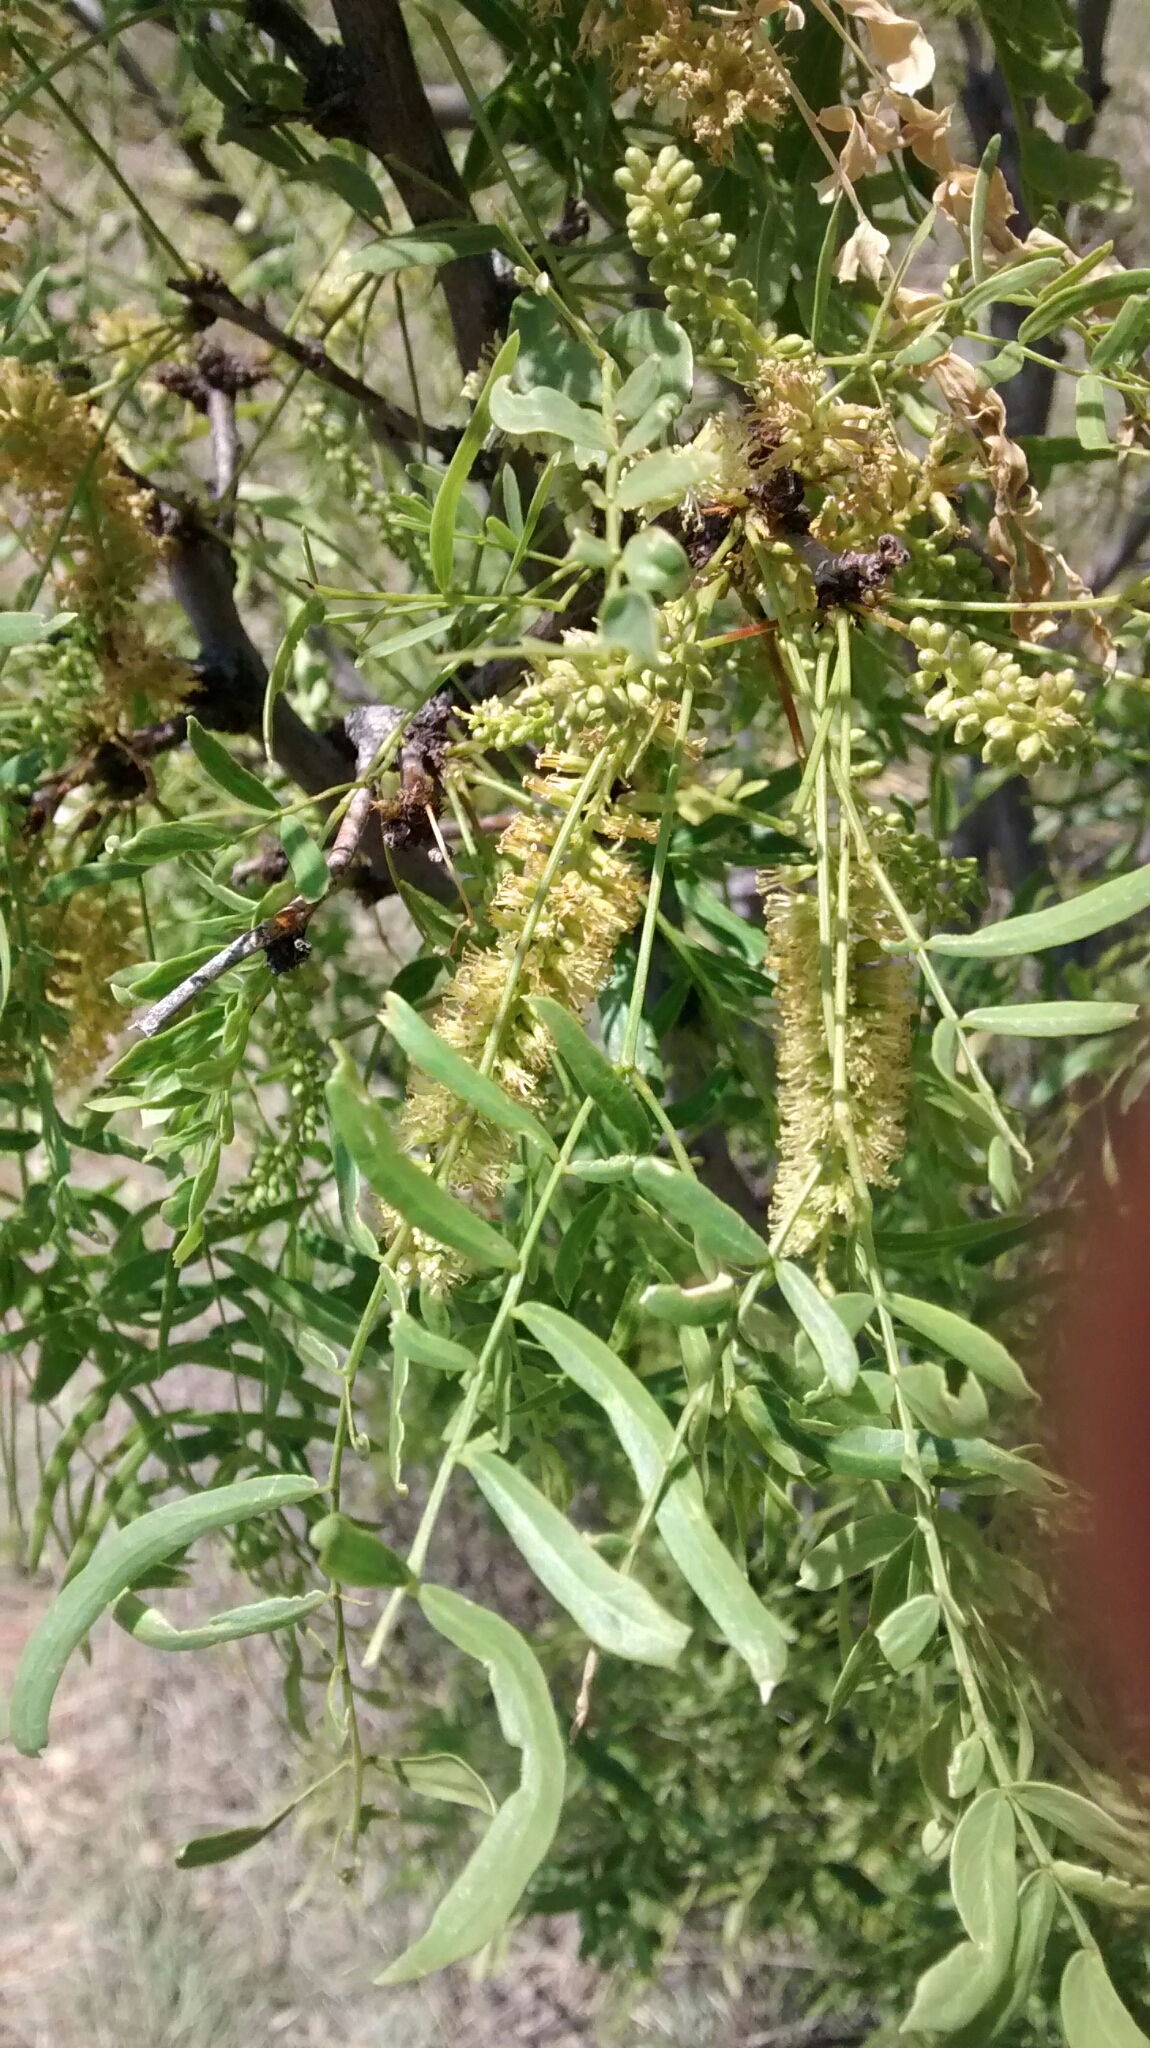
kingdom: Plantae
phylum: Tracheophyta
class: Magnoliopsida
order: Fabales
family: Fabaceae
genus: Prosopis
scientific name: Prosopis glandulosa
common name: Honey mesquite
